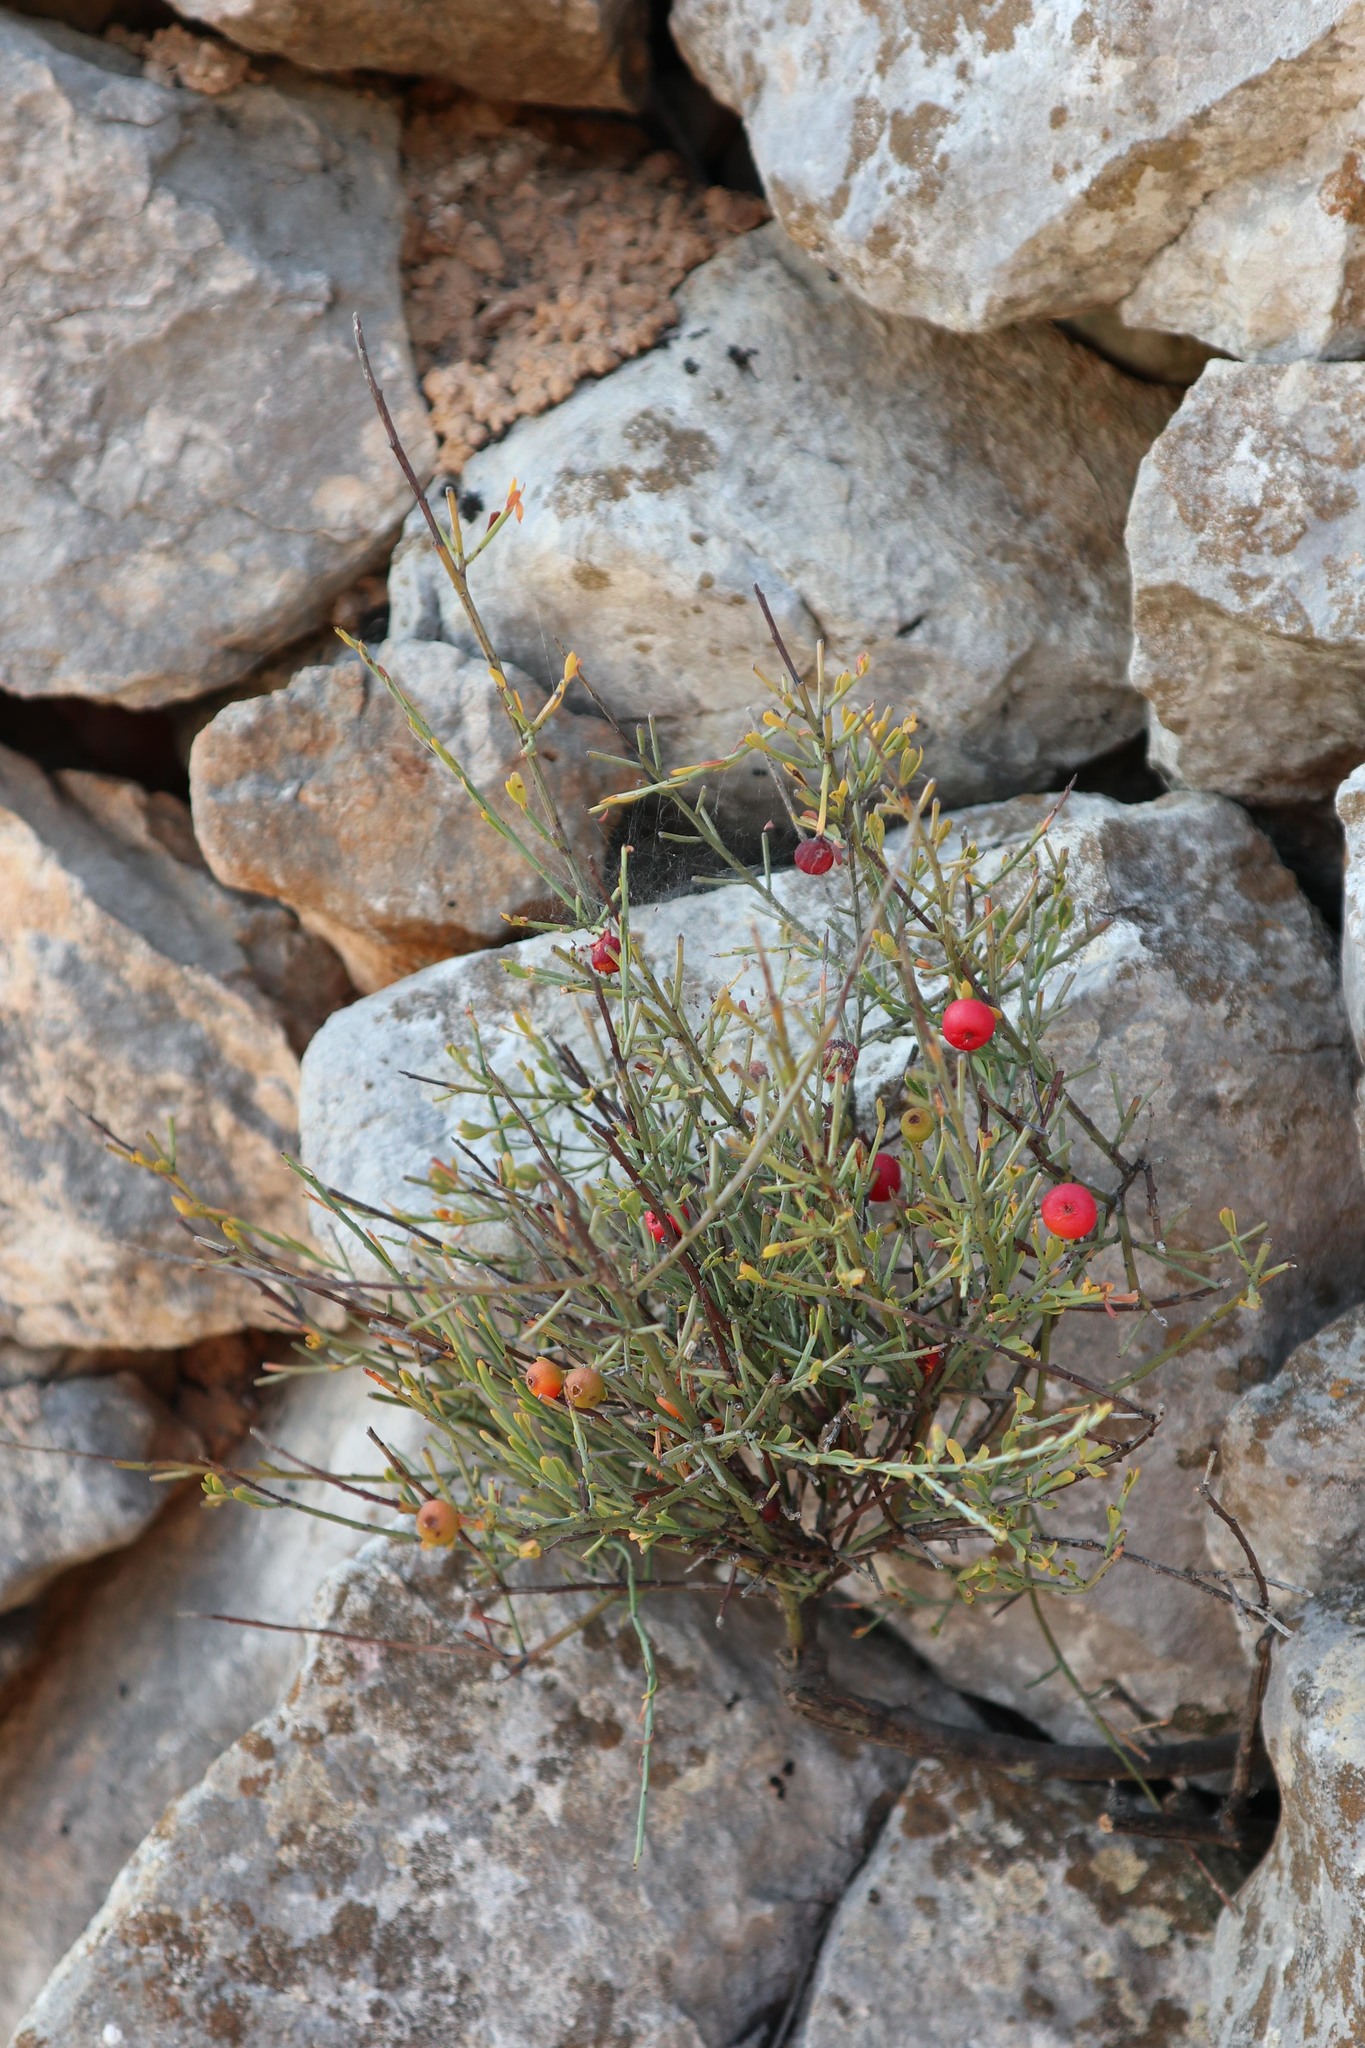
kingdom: Plantae
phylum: Tracheophyta
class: Magnoliopsida
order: Santalales
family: Santalaceae
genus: Osyris
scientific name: Osyris alba
